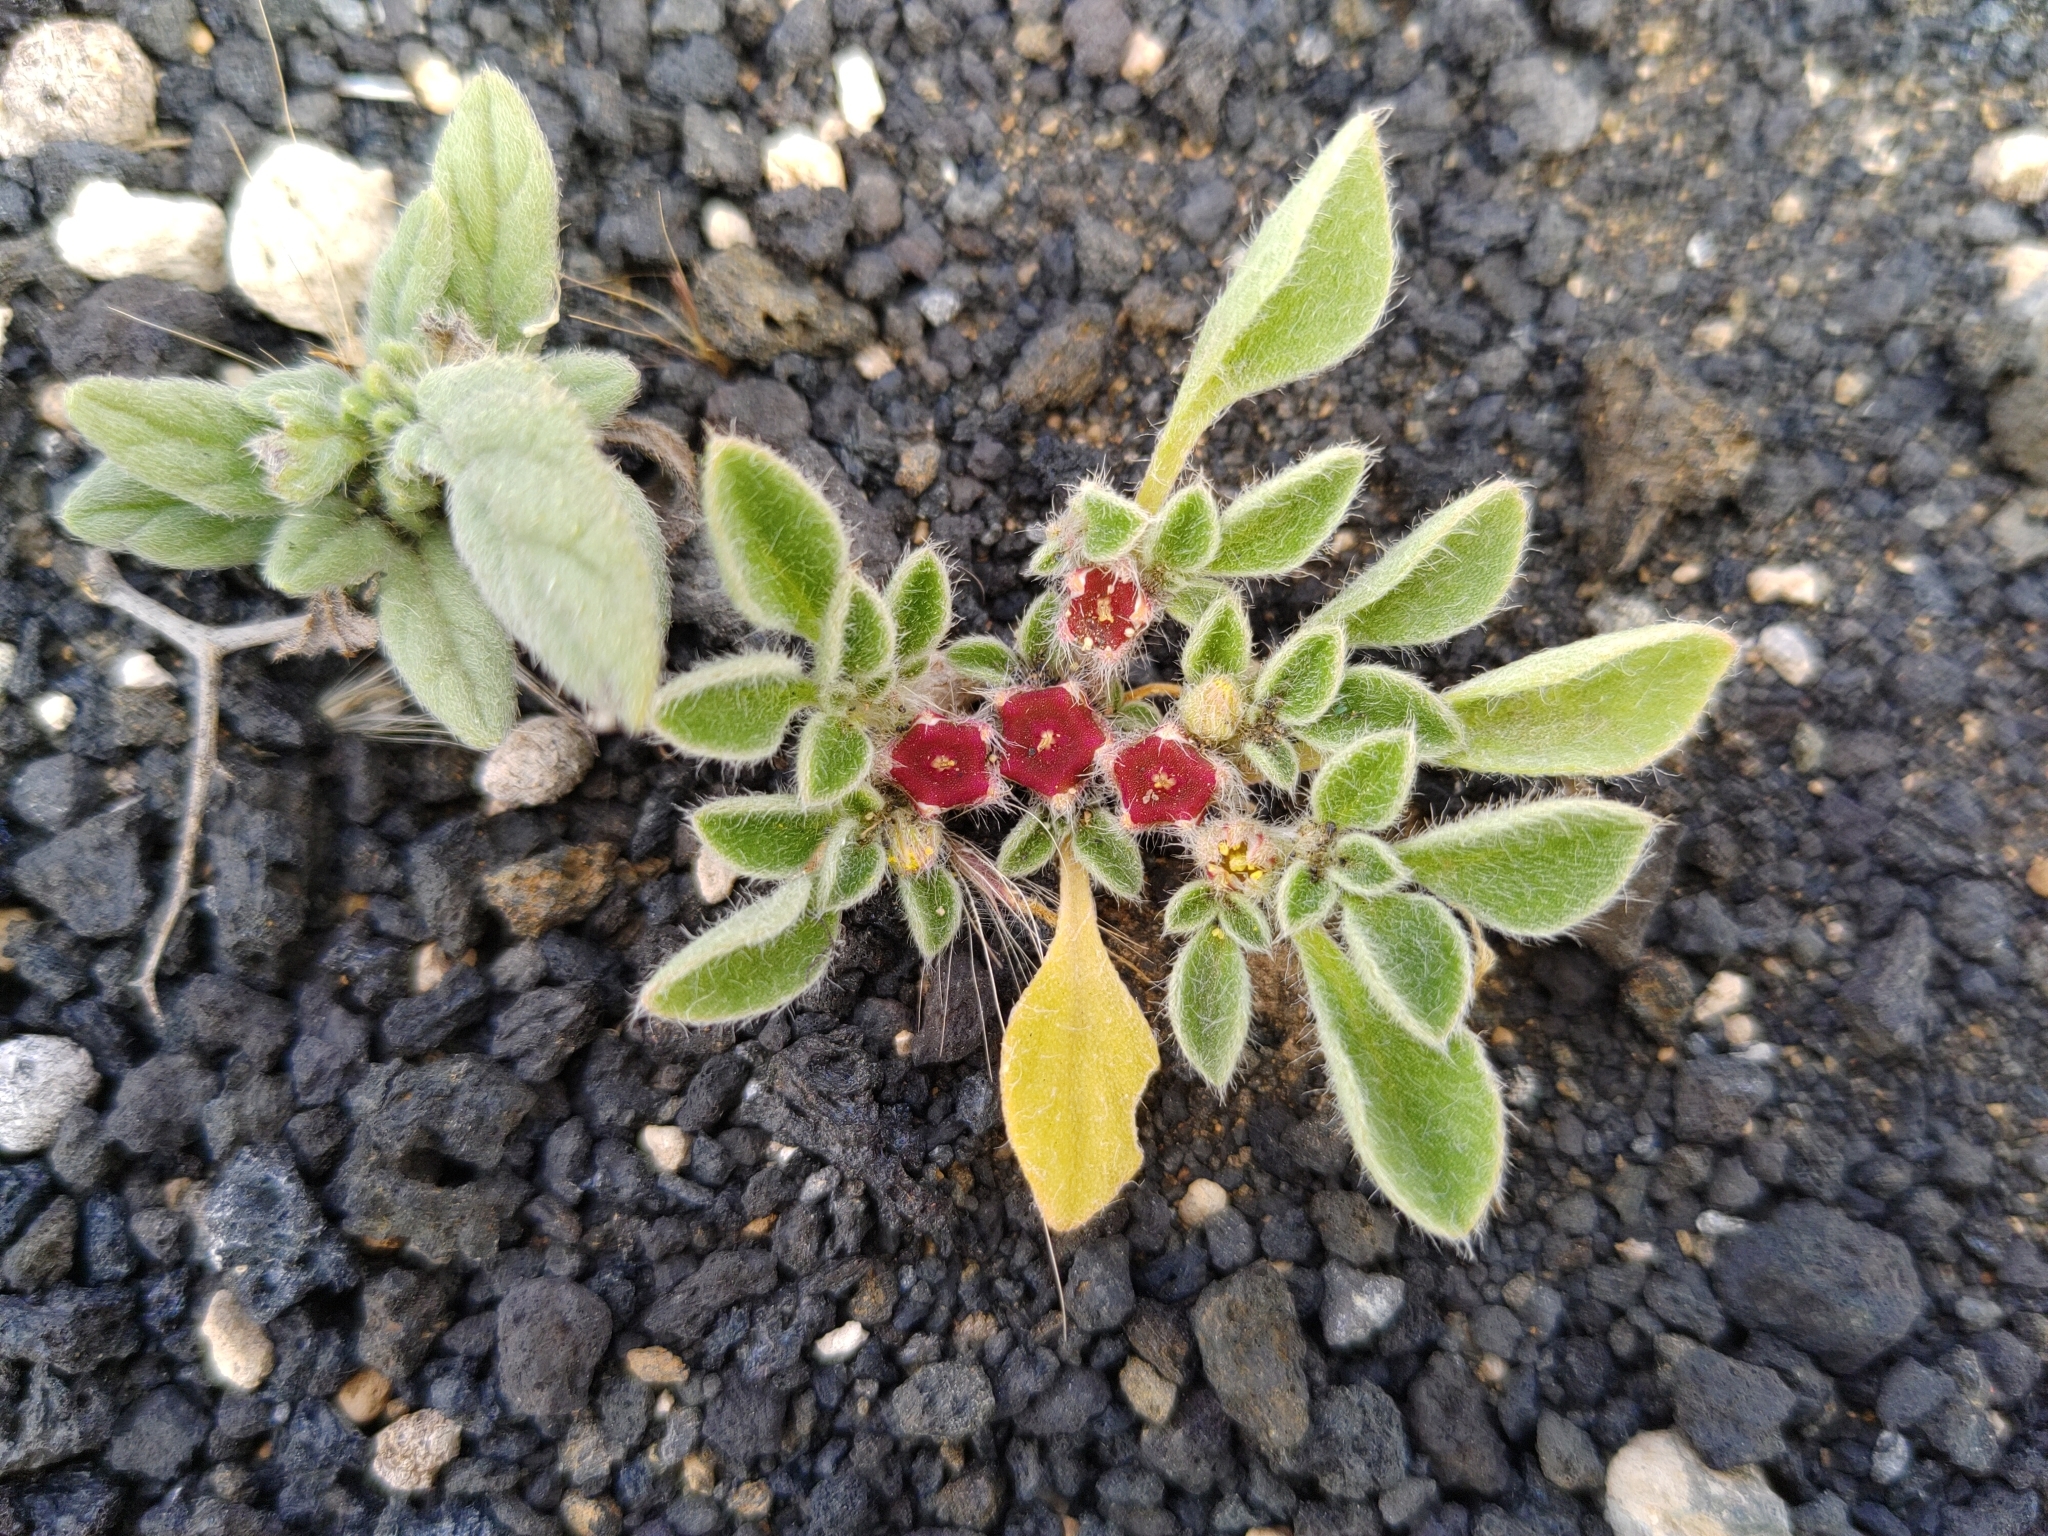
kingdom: Plantae
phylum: Tracheophyta
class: Magnoliopsida
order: Caryophyllales
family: Aizoaceae
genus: Aizoon
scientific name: Aizoon canariense
